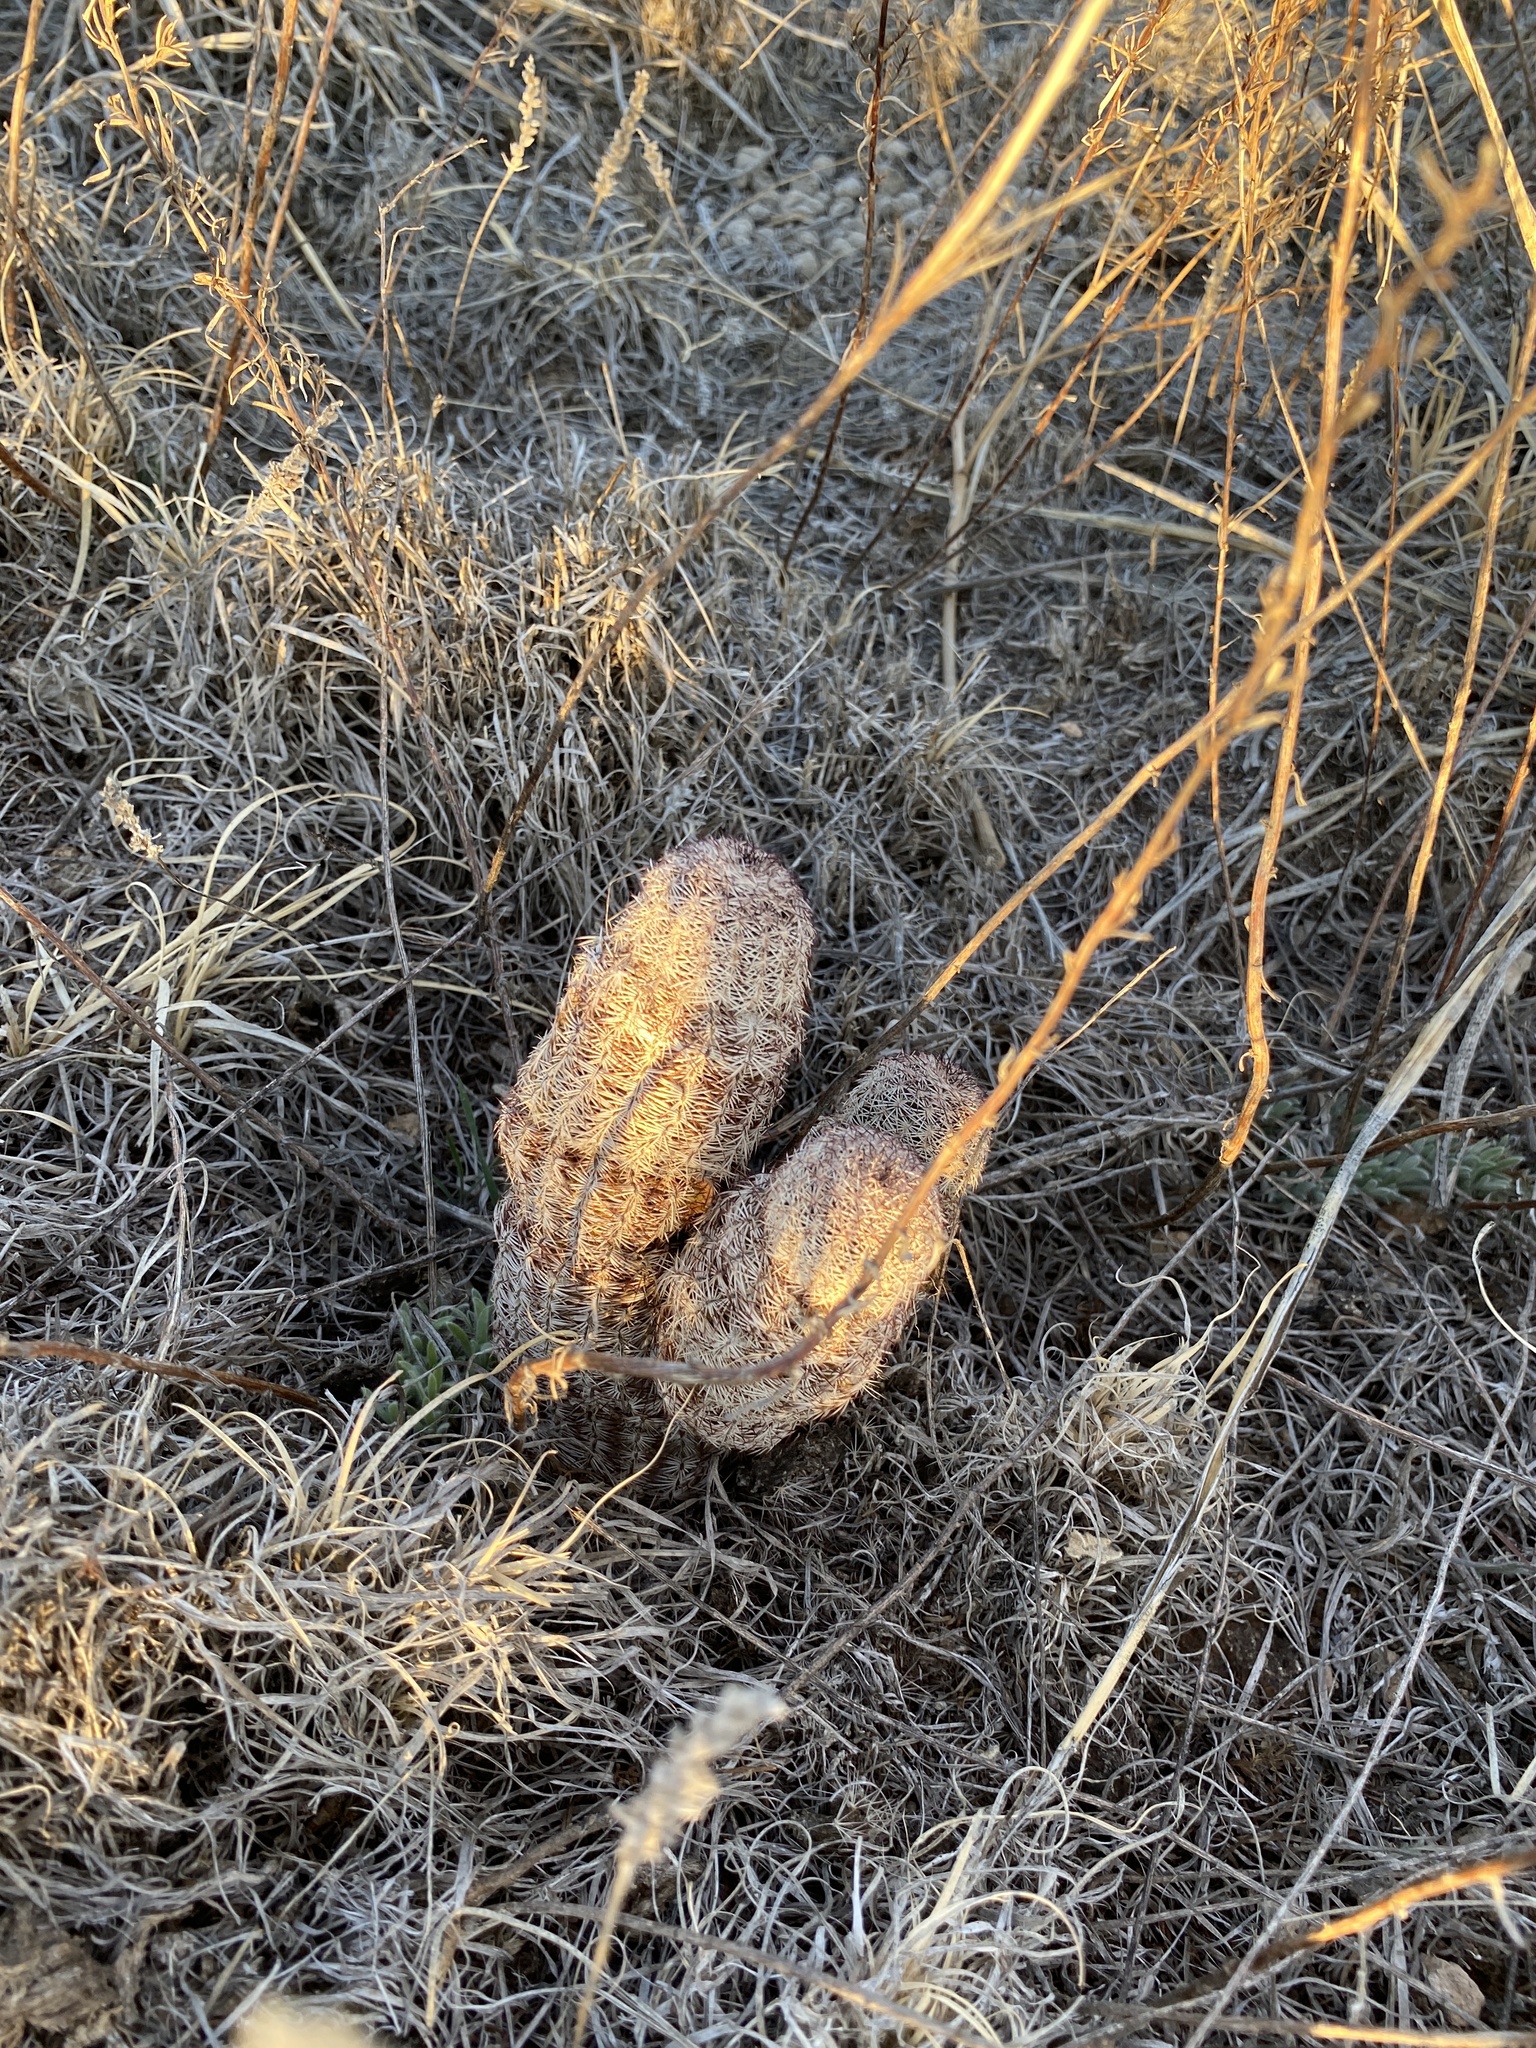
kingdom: Plantae
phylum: Tracheophyta
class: Magnoliopsida
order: Caryophyllales
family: Cactaceae
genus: Echinocereus
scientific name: Echinocereus reichenbachii
